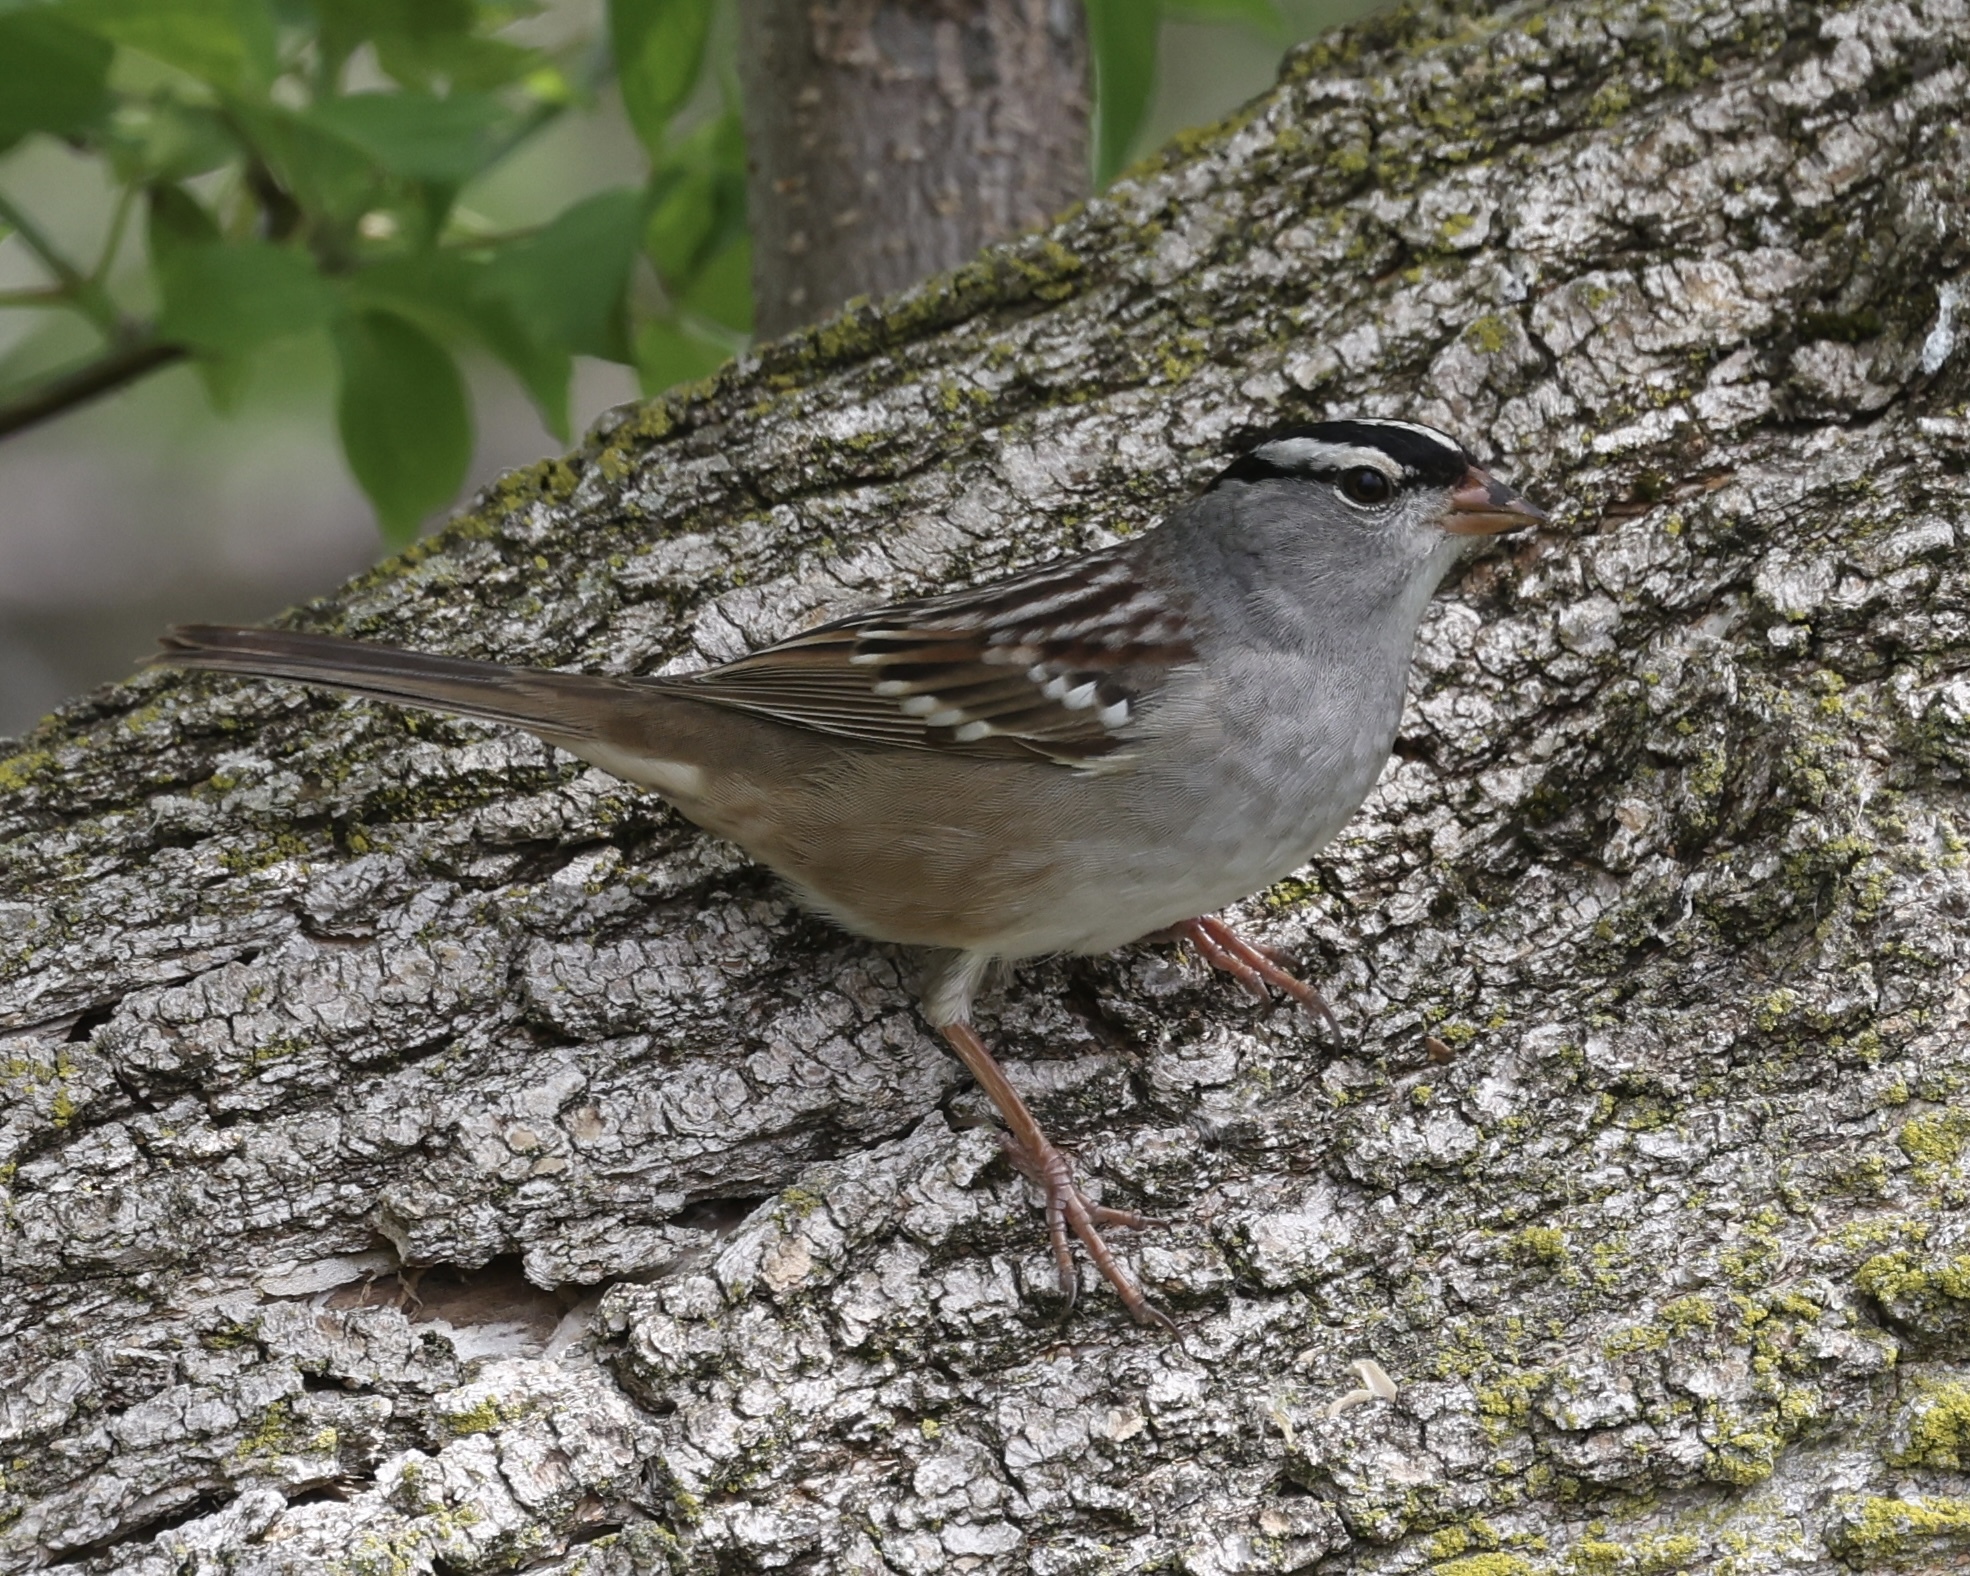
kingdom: Animalia
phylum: Chordata
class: Aves
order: Passeriformes
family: Passerellidae
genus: Zonotrichia
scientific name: Zonotrichia leucophrys
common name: White-crowned sparrow
